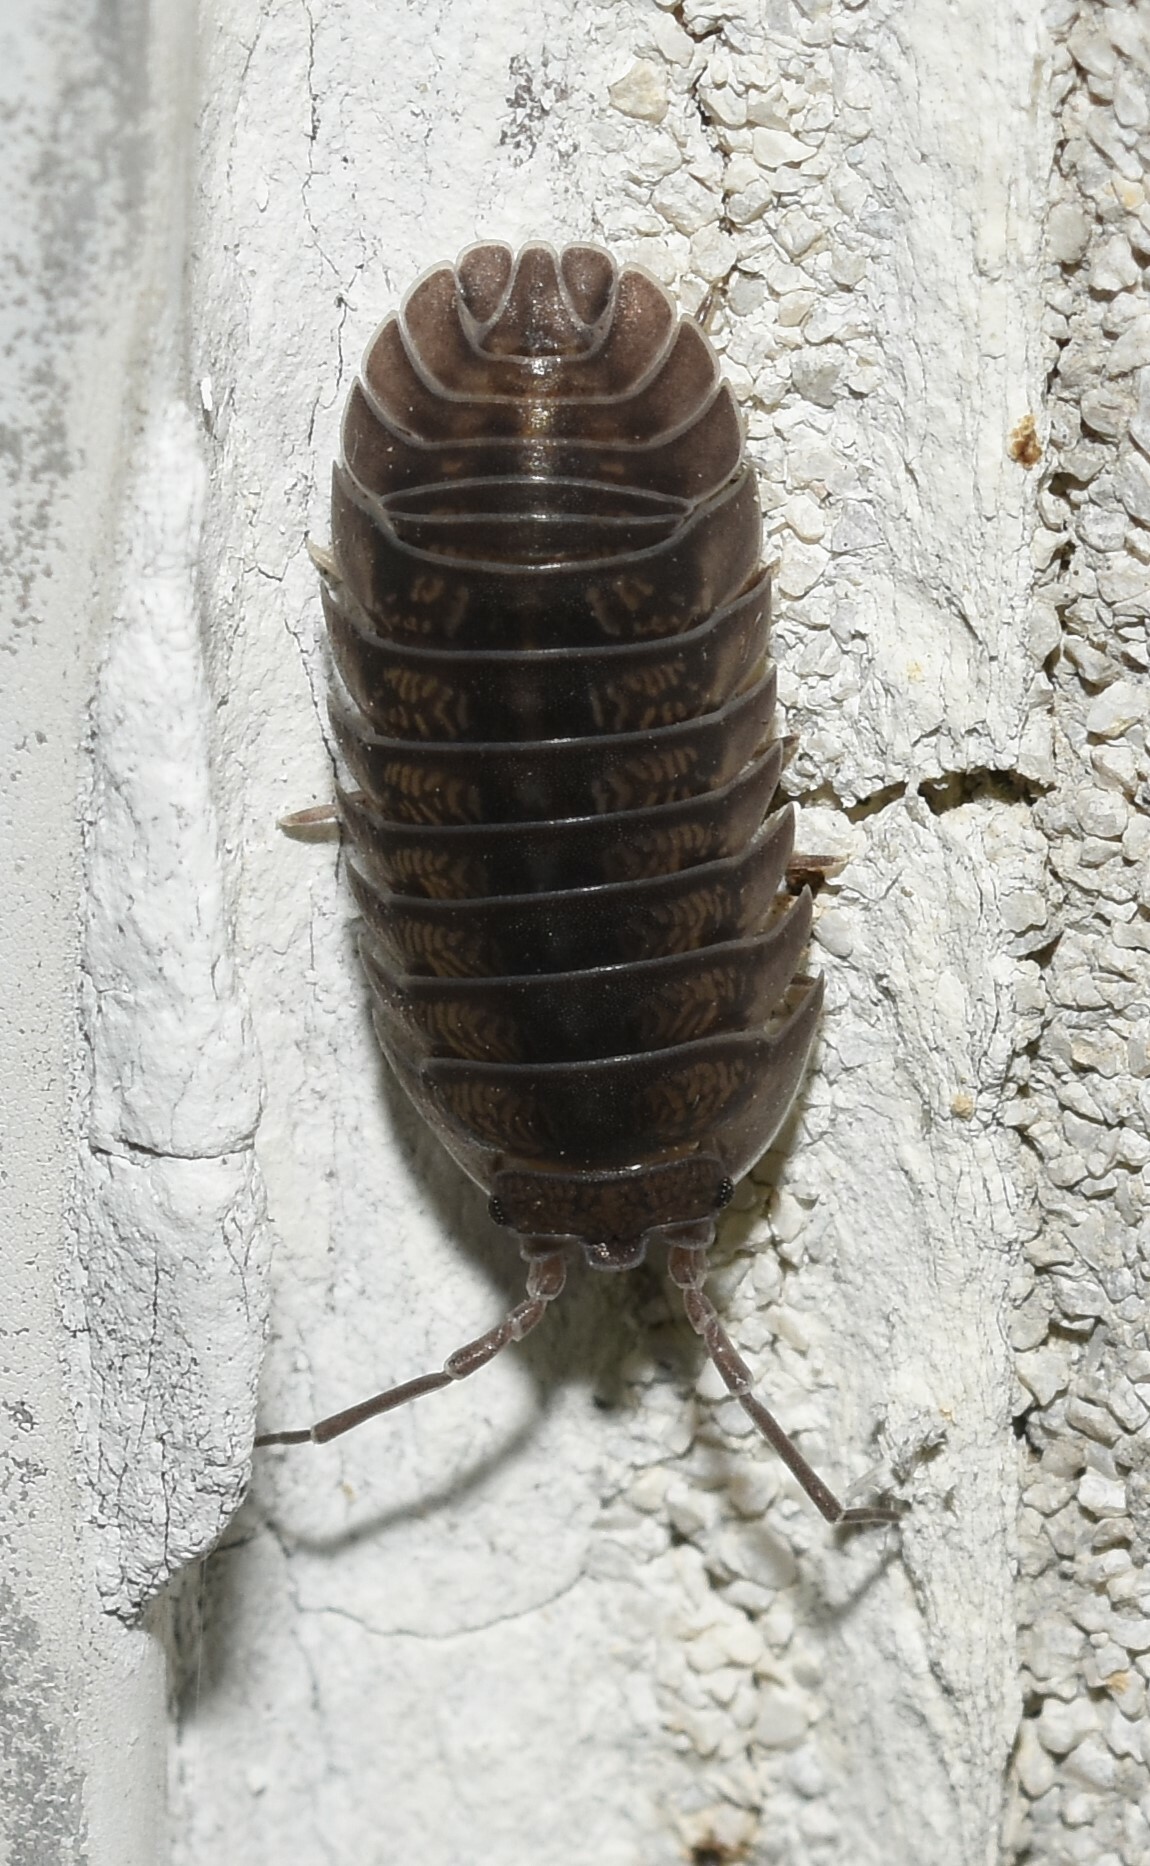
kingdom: Animalia
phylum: Arthropoda
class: Malacostraca
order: Isopoda
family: Armadillidiidae
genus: Armadillidium
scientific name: Armadillidium nasatum
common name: Isopod
